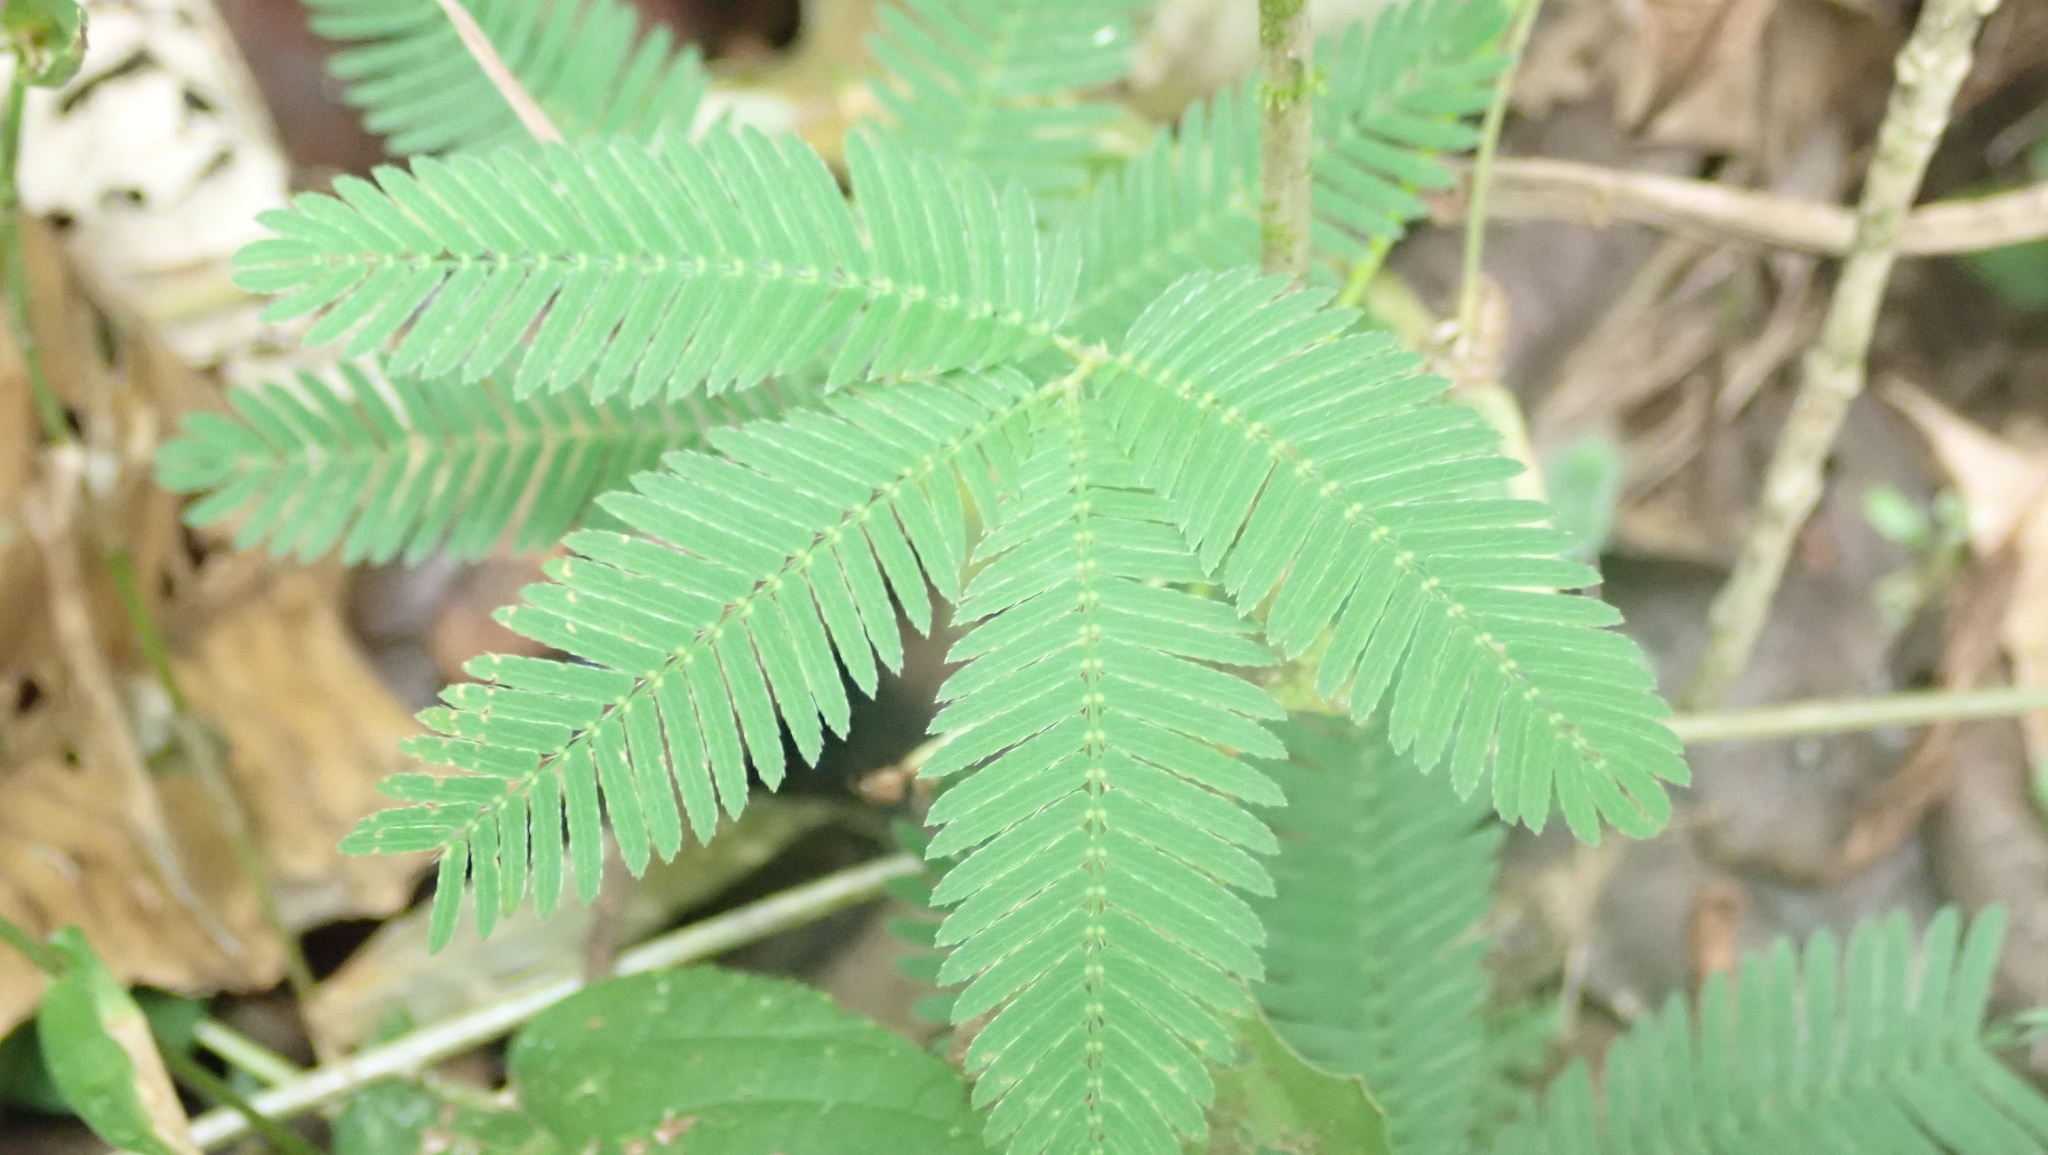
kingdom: Plantae
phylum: Tracheophyta
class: Magnoliopsida
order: Fabales
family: Fabaceae
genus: Mimosa
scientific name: Mimosa pudica
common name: Sensitive plant
